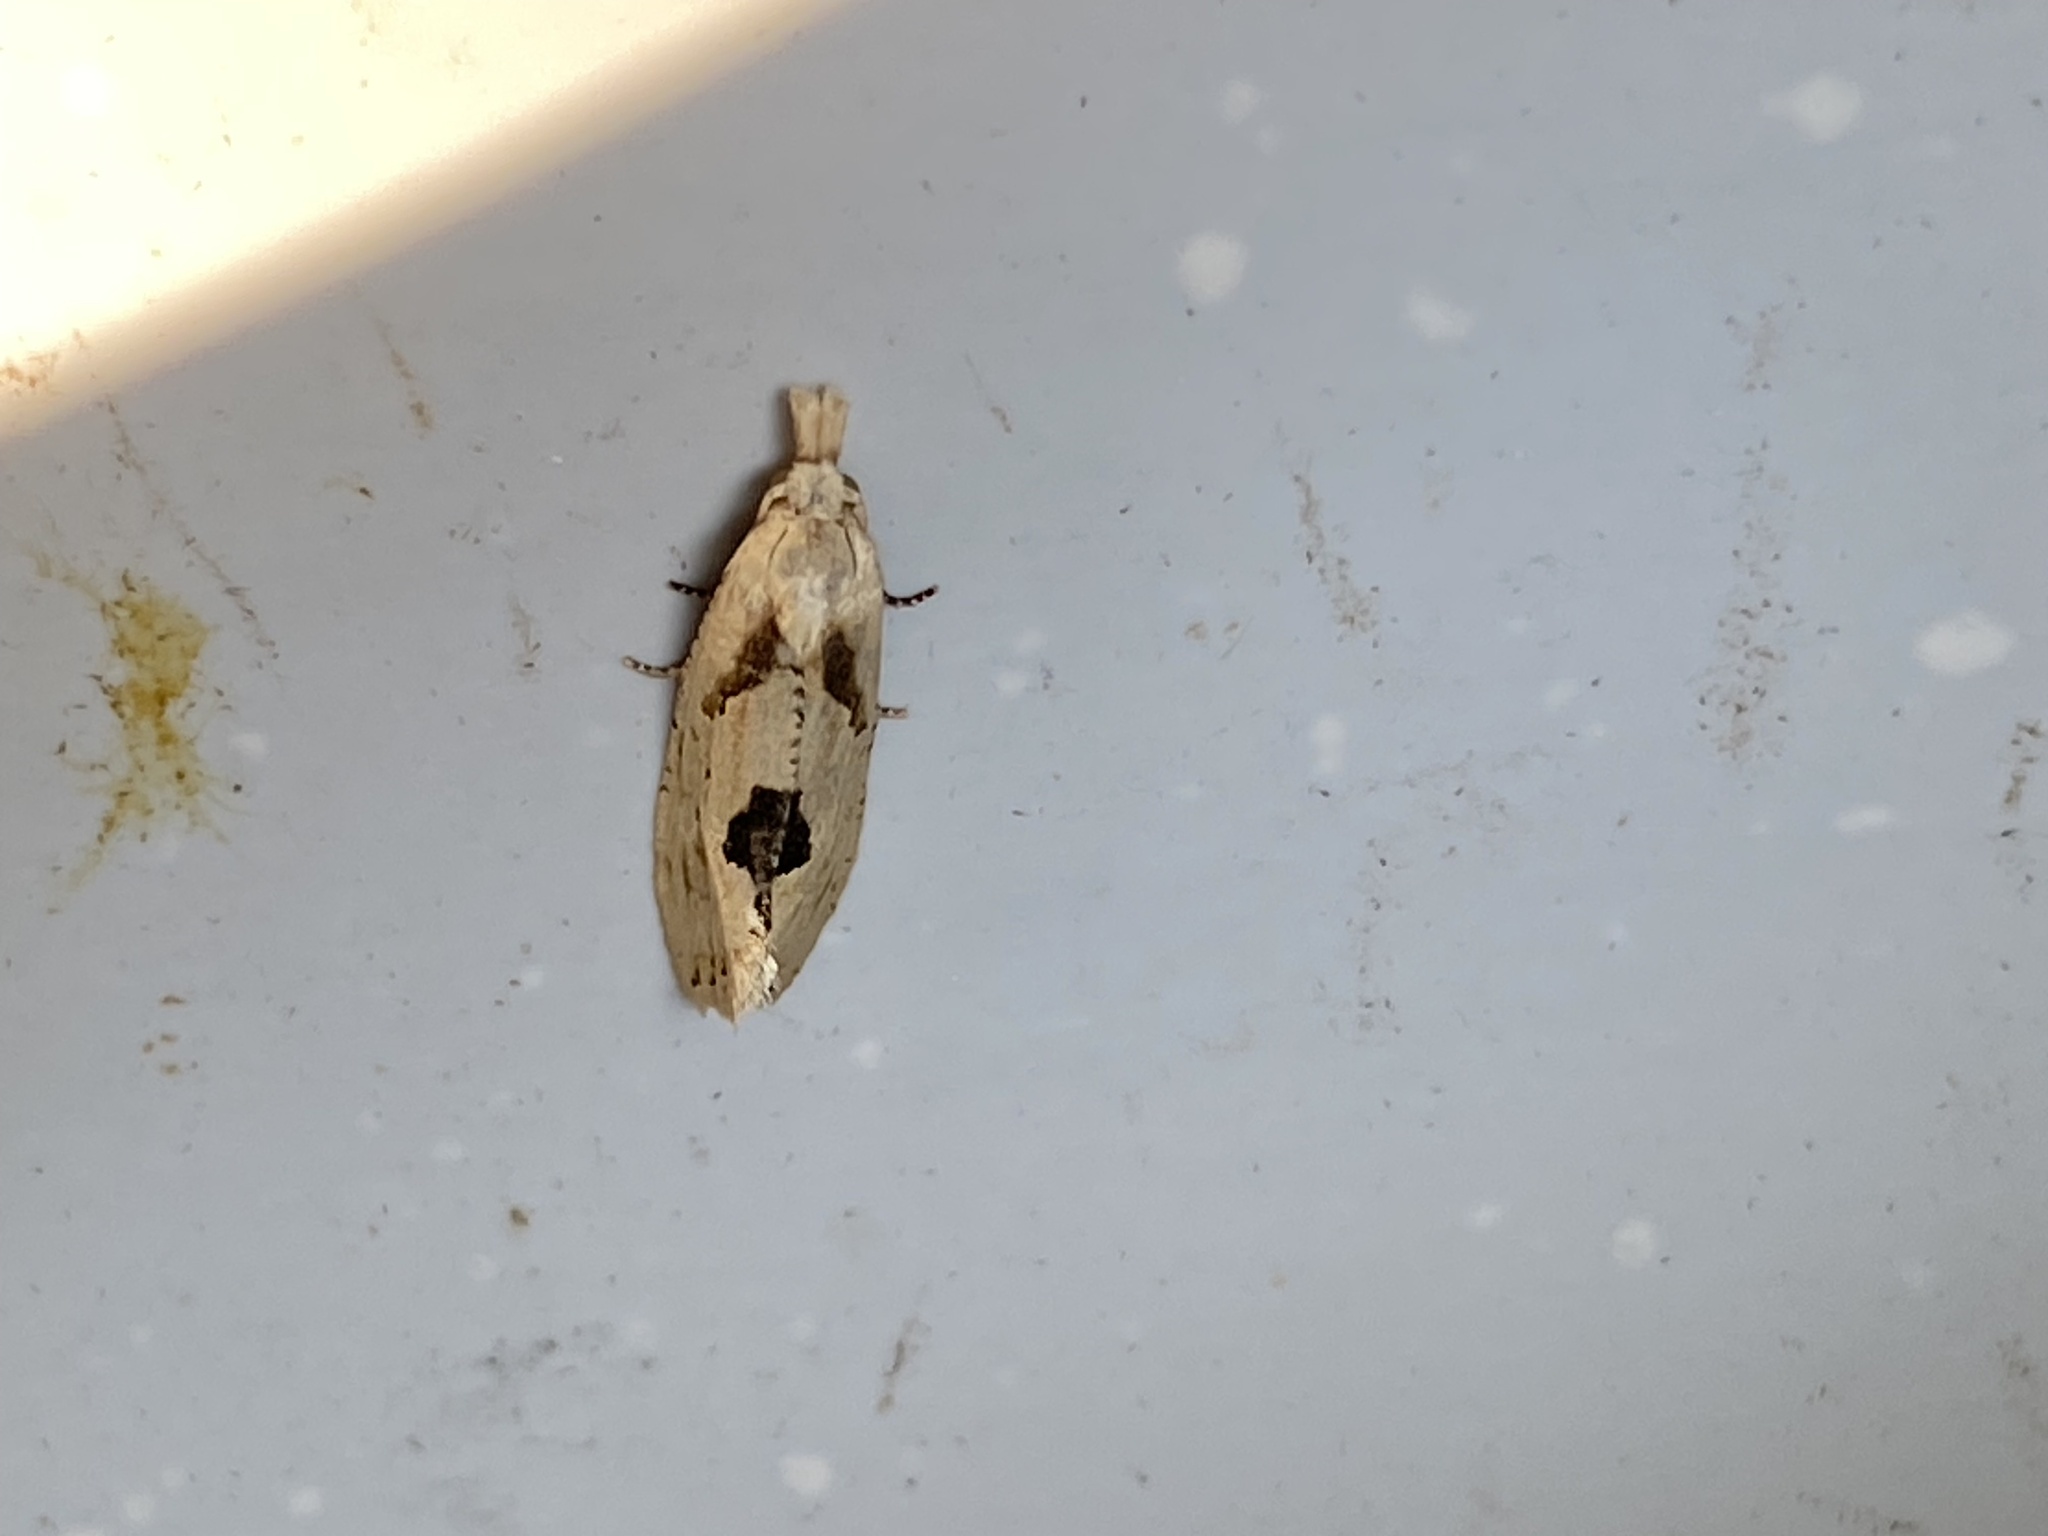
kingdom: Animalia
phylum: Arthropoda
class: Insecta
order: Lepidoptera
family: Tortricidae
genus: Suleima
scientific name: Suleima helianthana
